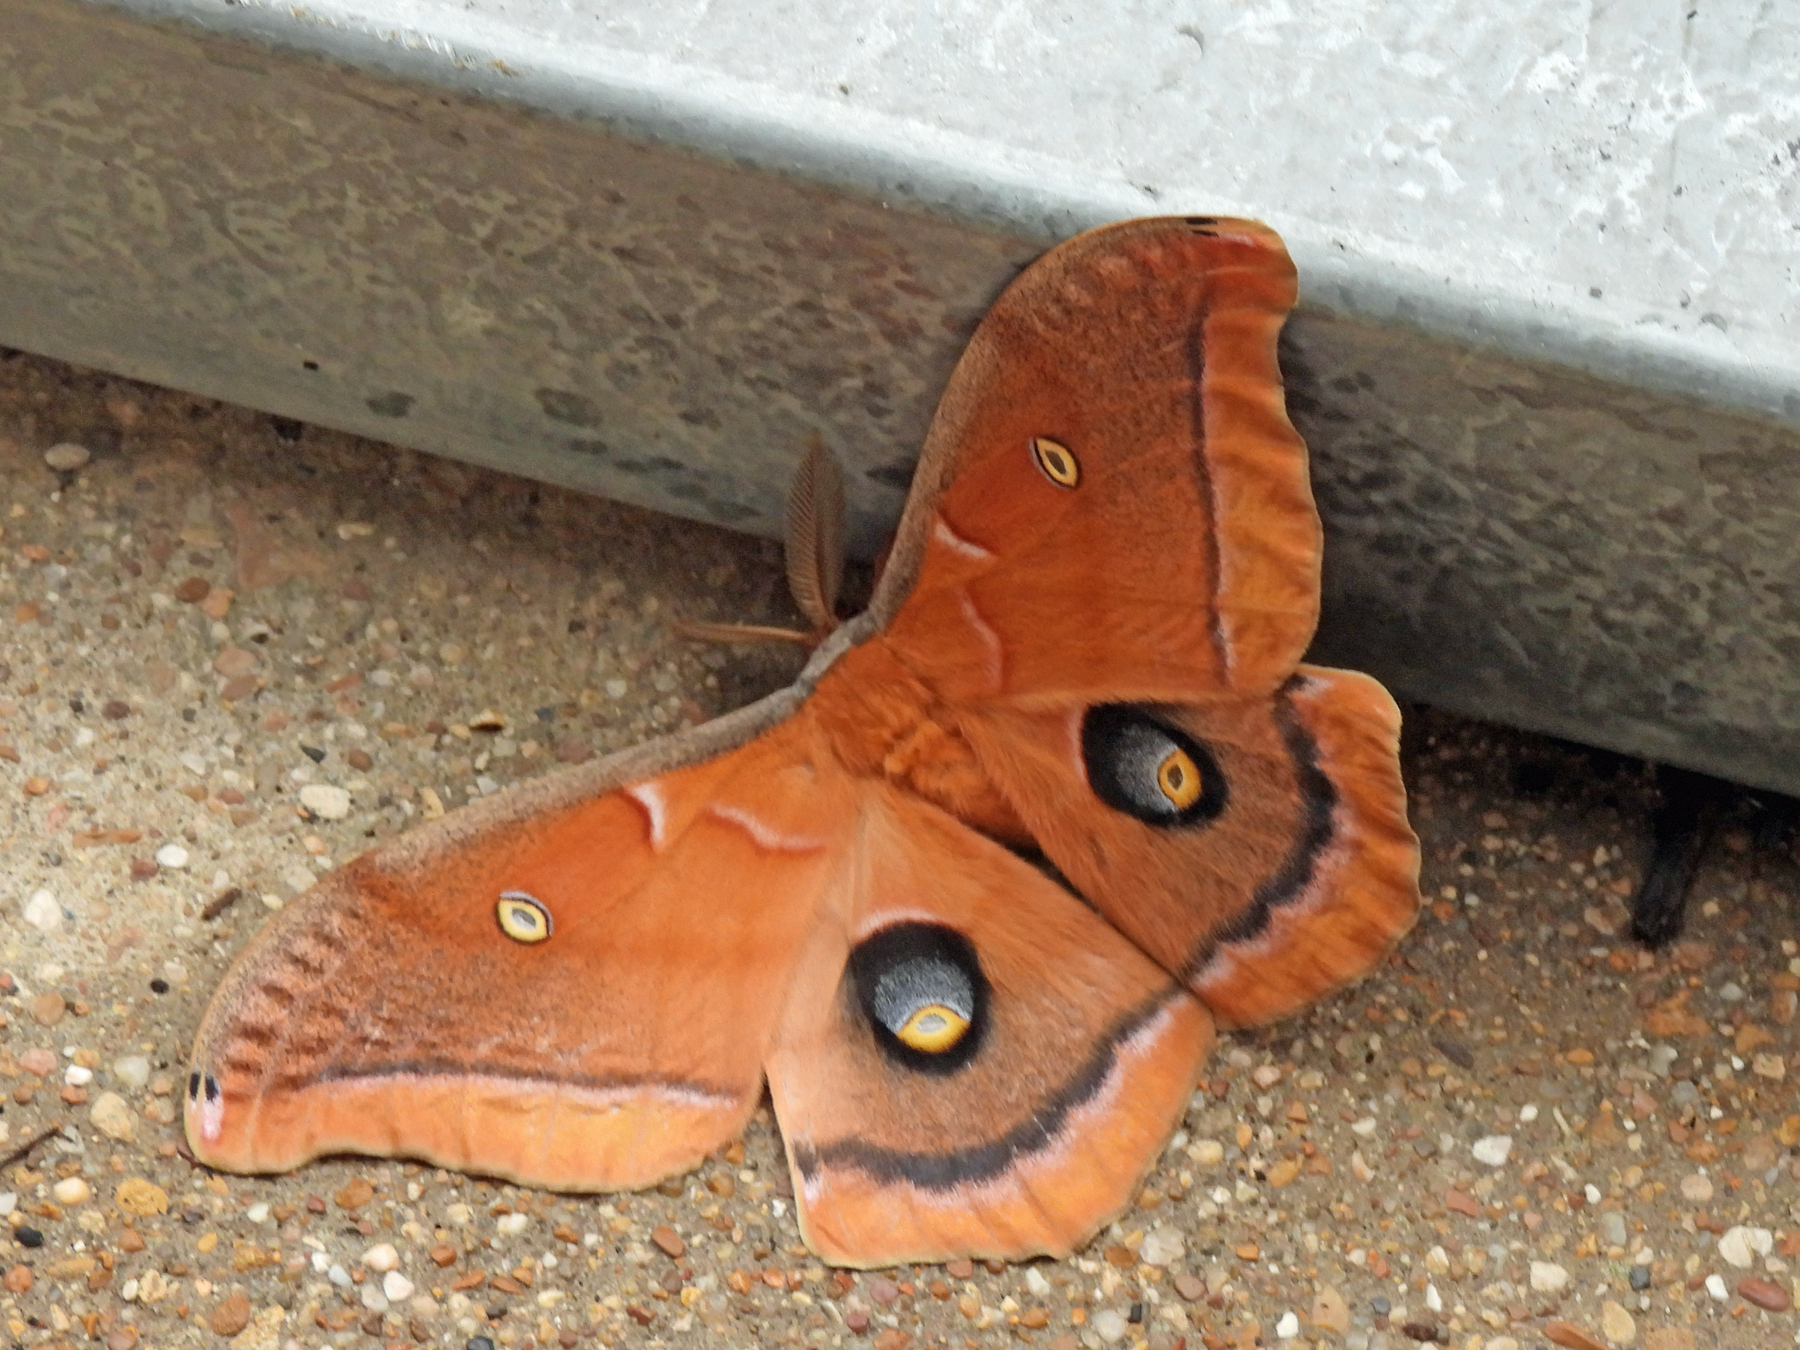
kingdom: Animalia
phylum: Arthropoda
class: Insecta
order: Lepidoptera
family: Saturniidae
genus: Antheraea
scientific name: Antheraea polyphemus
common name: Polyphemus moth
